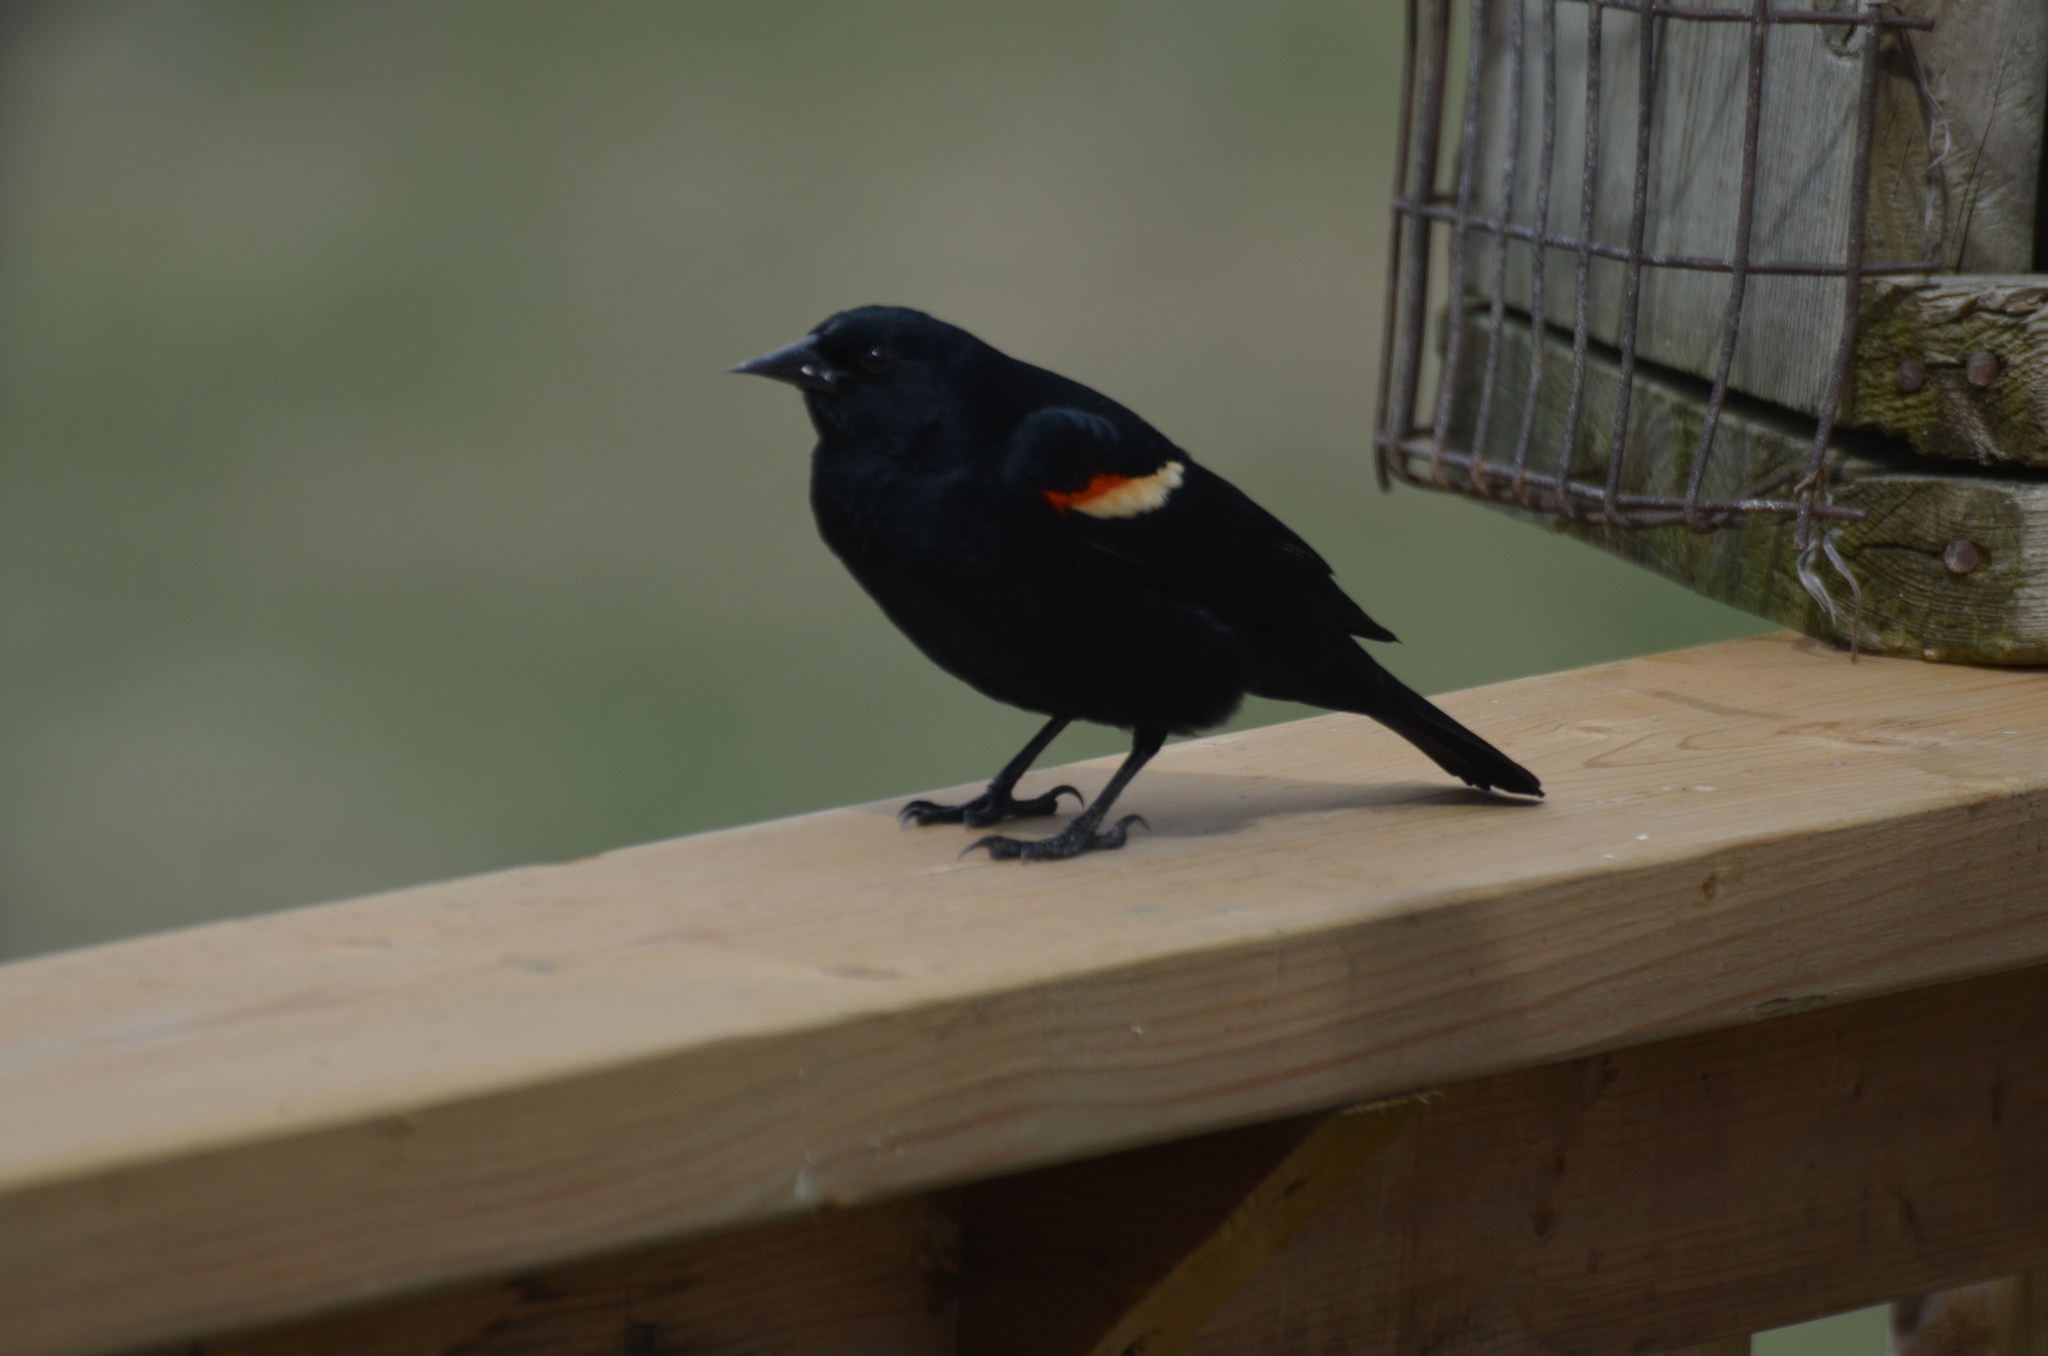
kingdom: Animalia
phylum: Chordata
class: Aves
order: Passeriformes
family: Icteridae
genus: Agelaius
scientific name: Agelaius phoeniceus
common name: Red-winged blackbird
